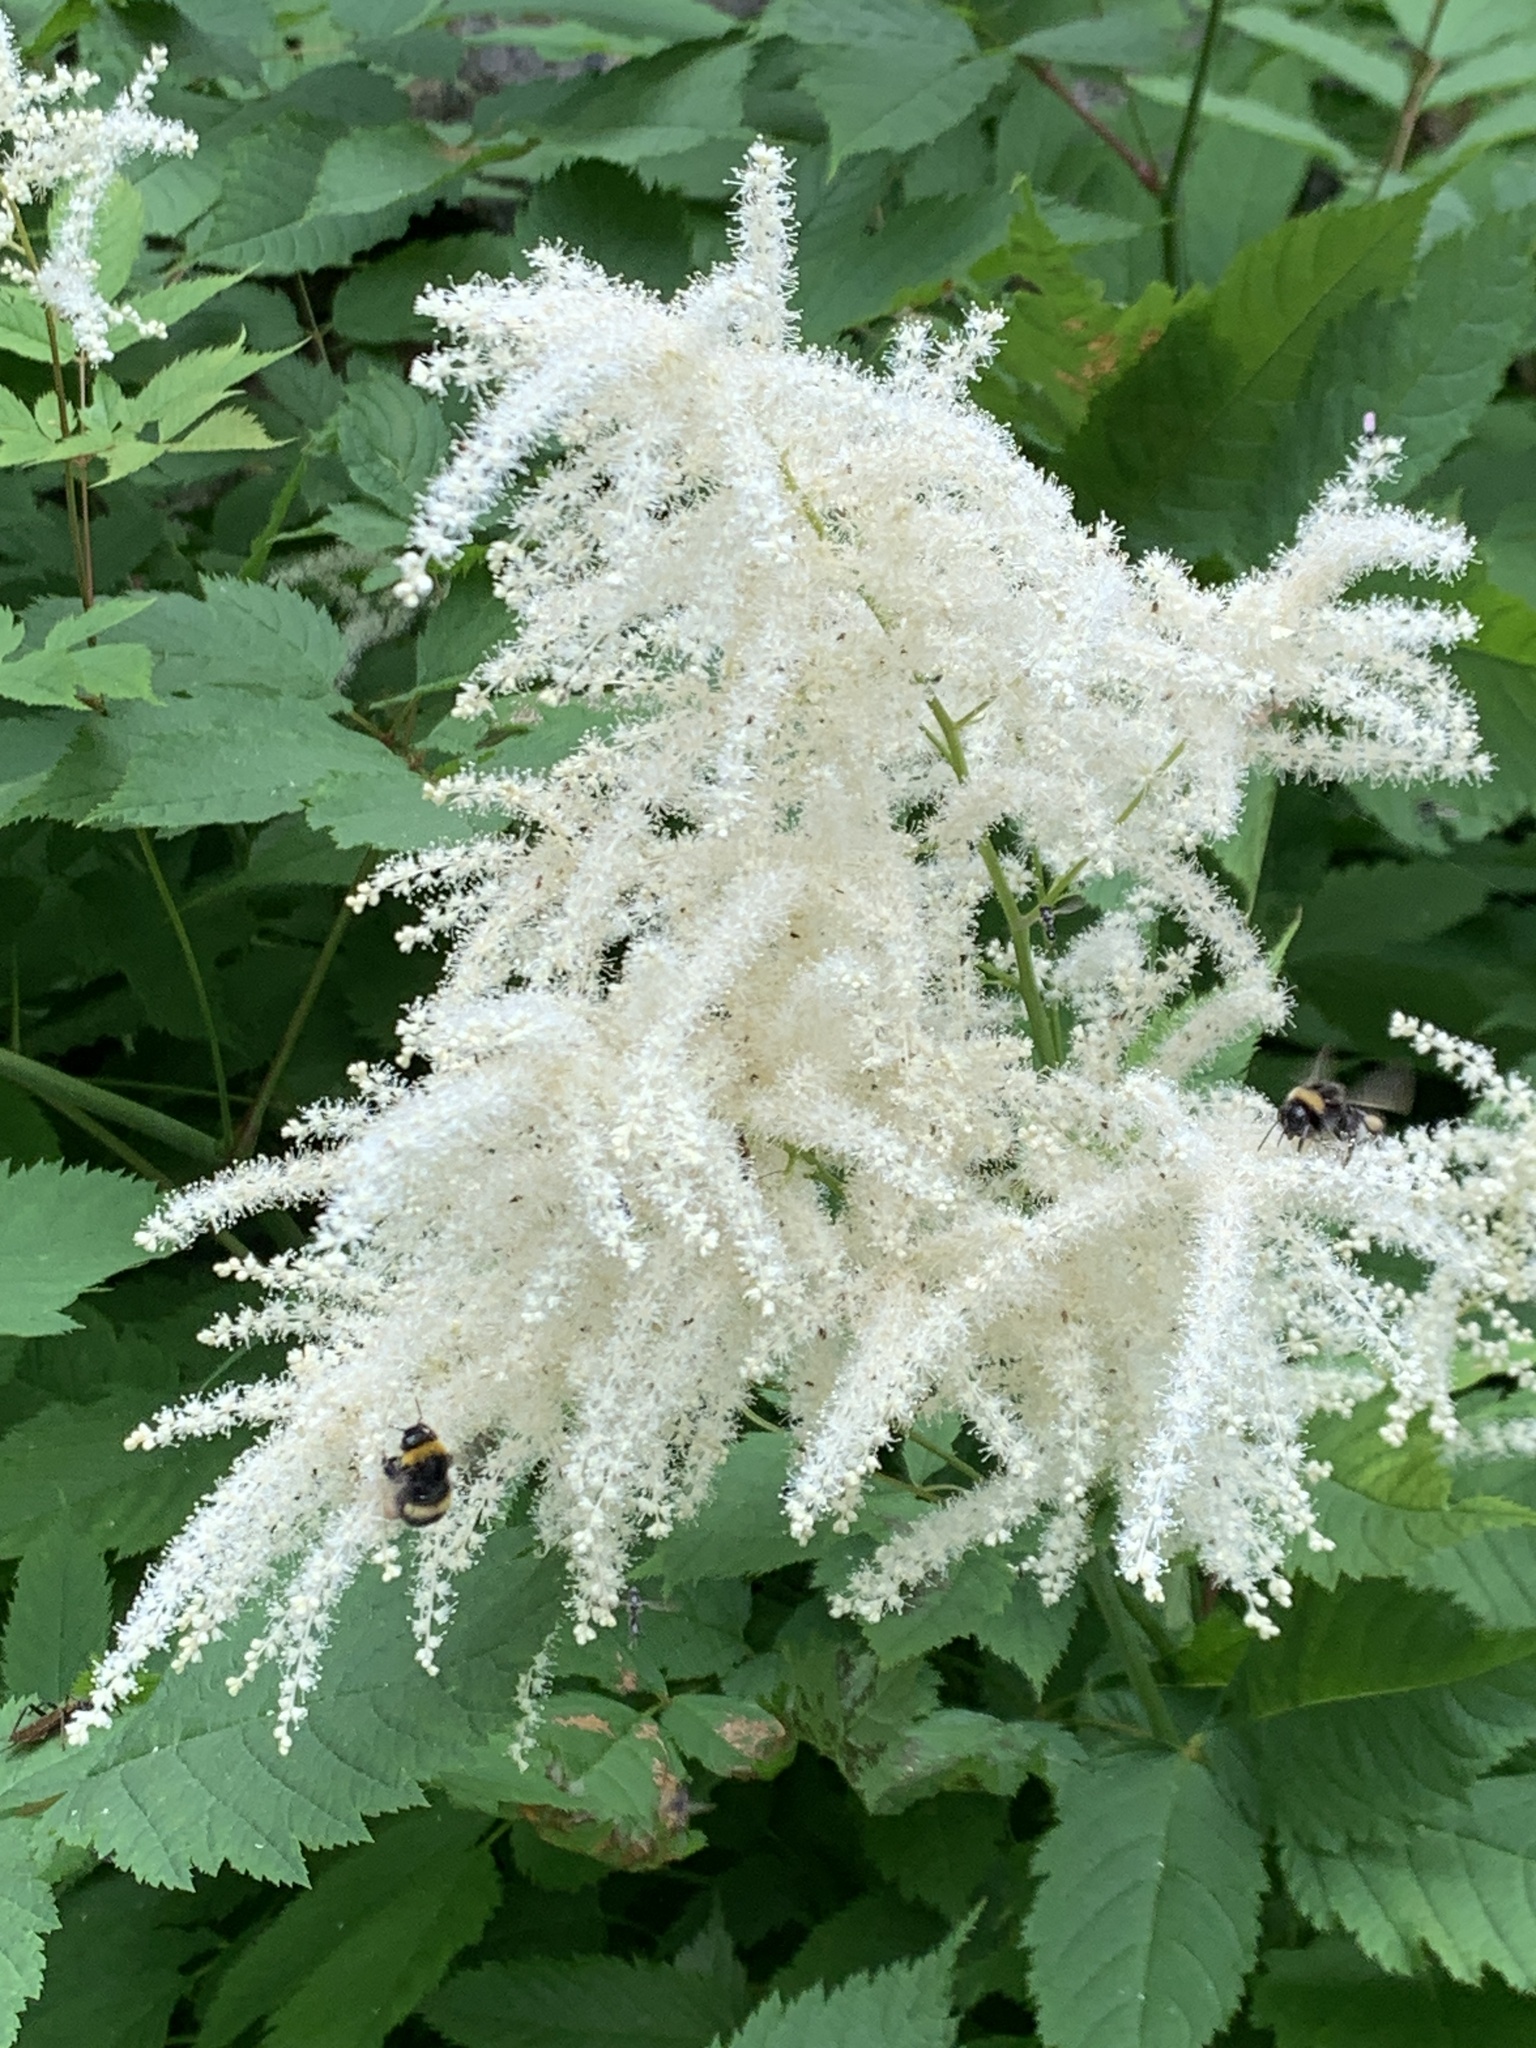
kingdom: Plantae
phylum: Tracheophyta
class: Magnoliopsida
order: Rosales
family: Rosaceae
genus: Aruncus
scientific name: Aruncus dioicus
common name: Buck's-beard
